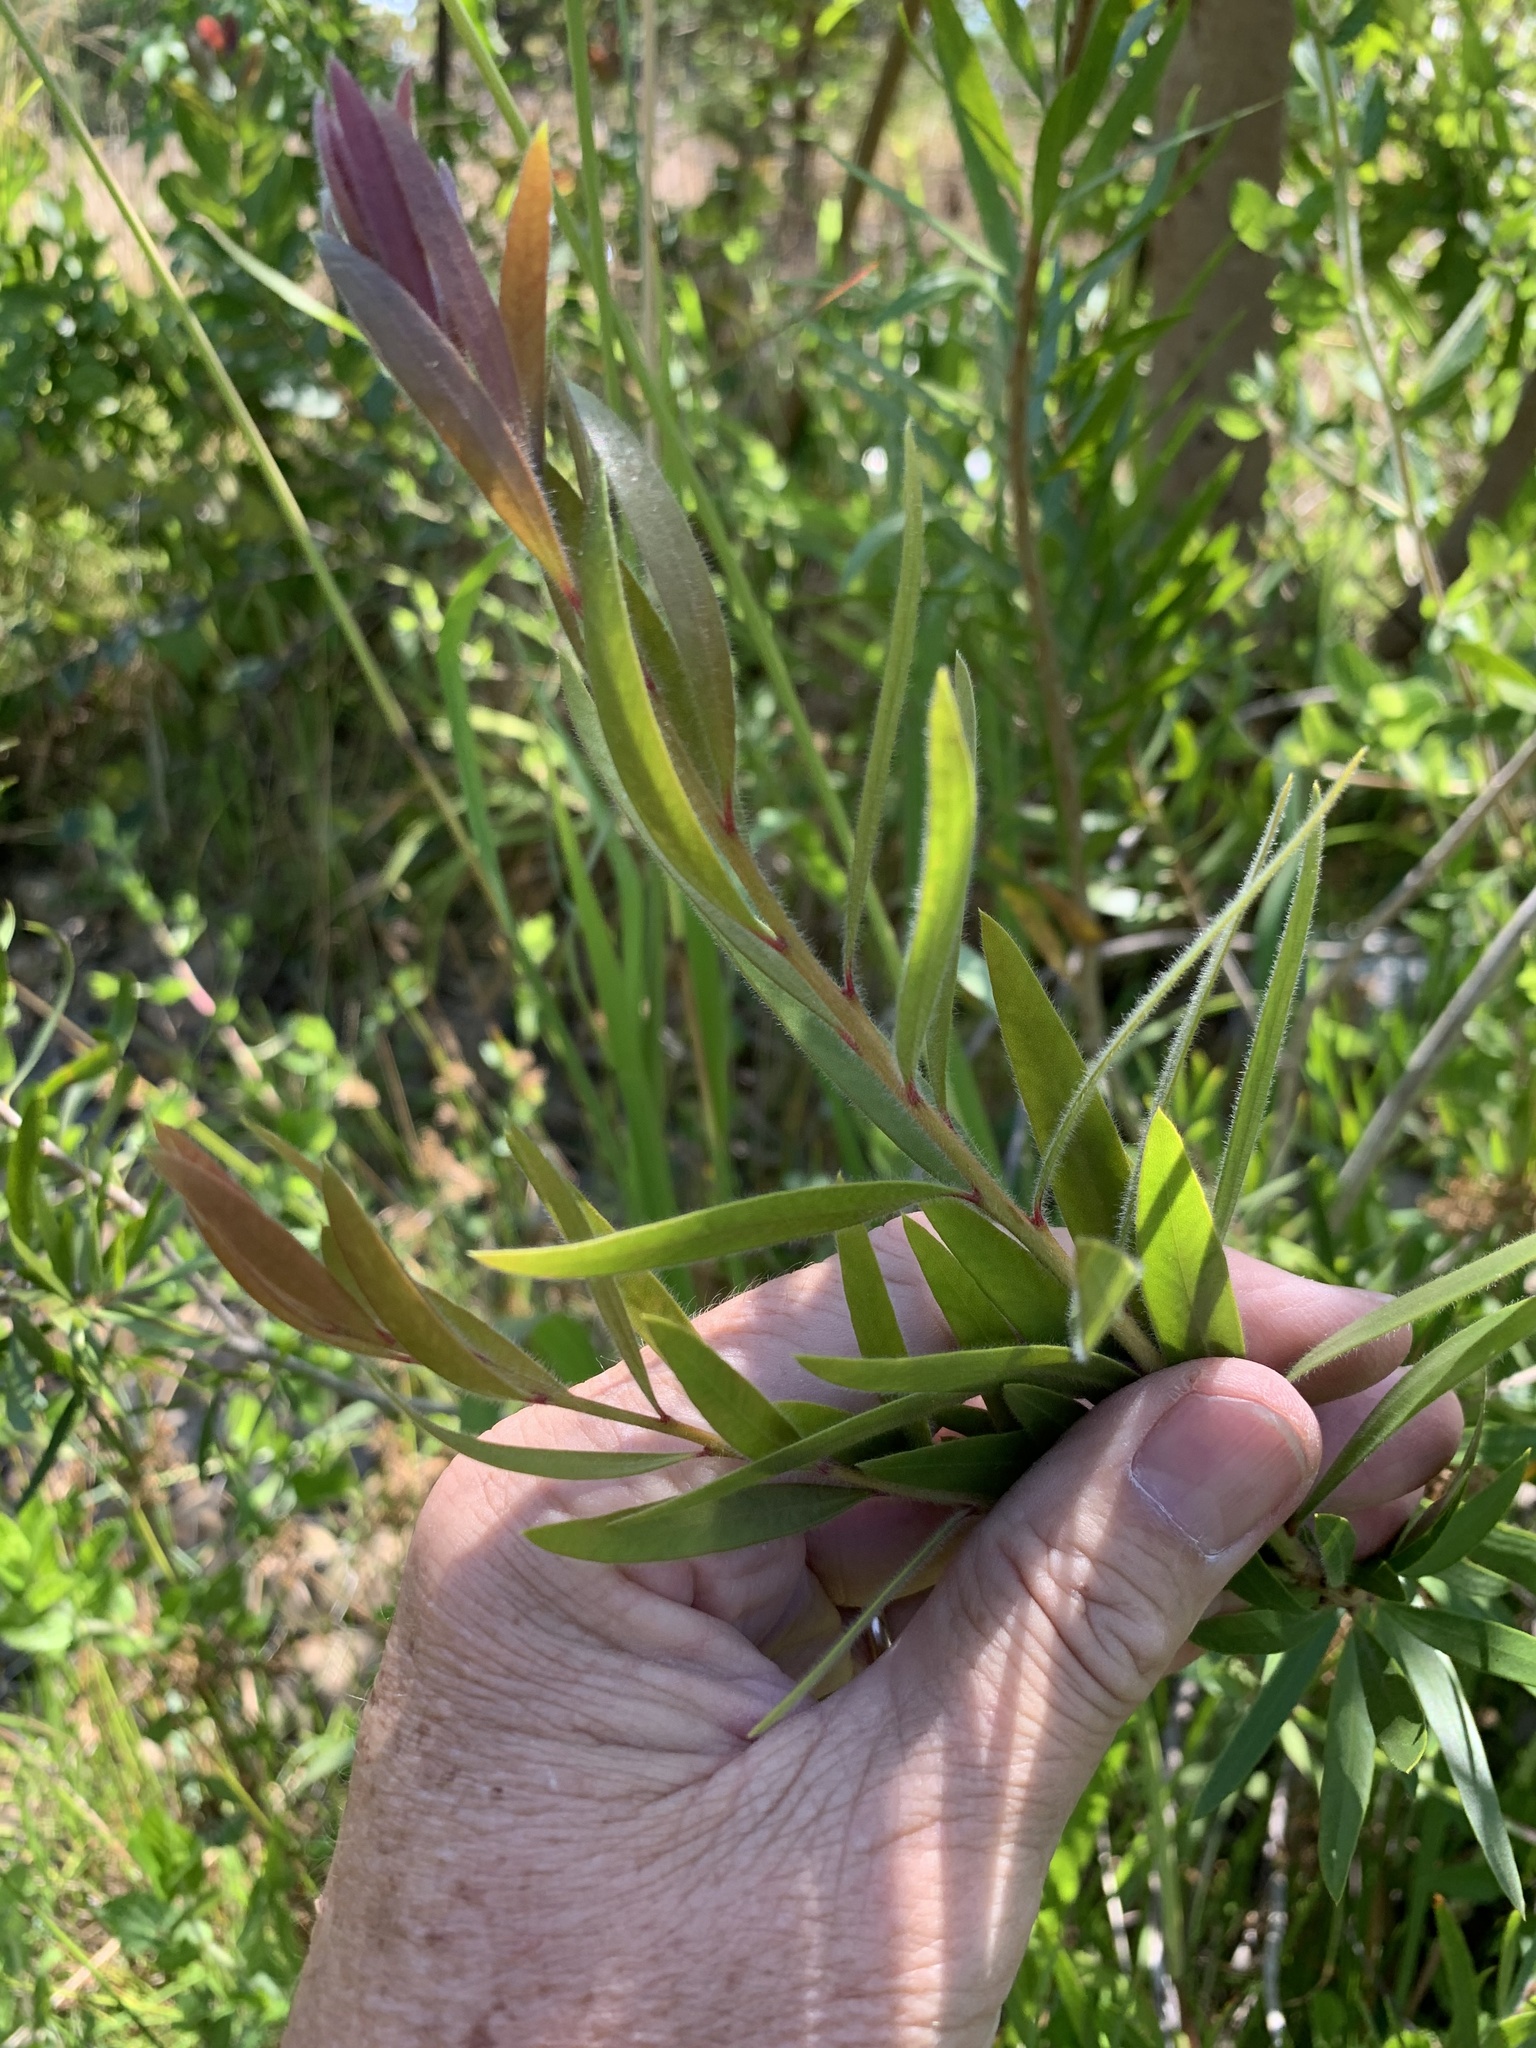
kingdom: Plantae
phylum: Tracheophyta
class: Magnoliopsida
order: Myrtales
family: Myrtaceae
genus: Callistemon
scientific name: Callistemon viminalis
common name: Drooping bottlebrush
